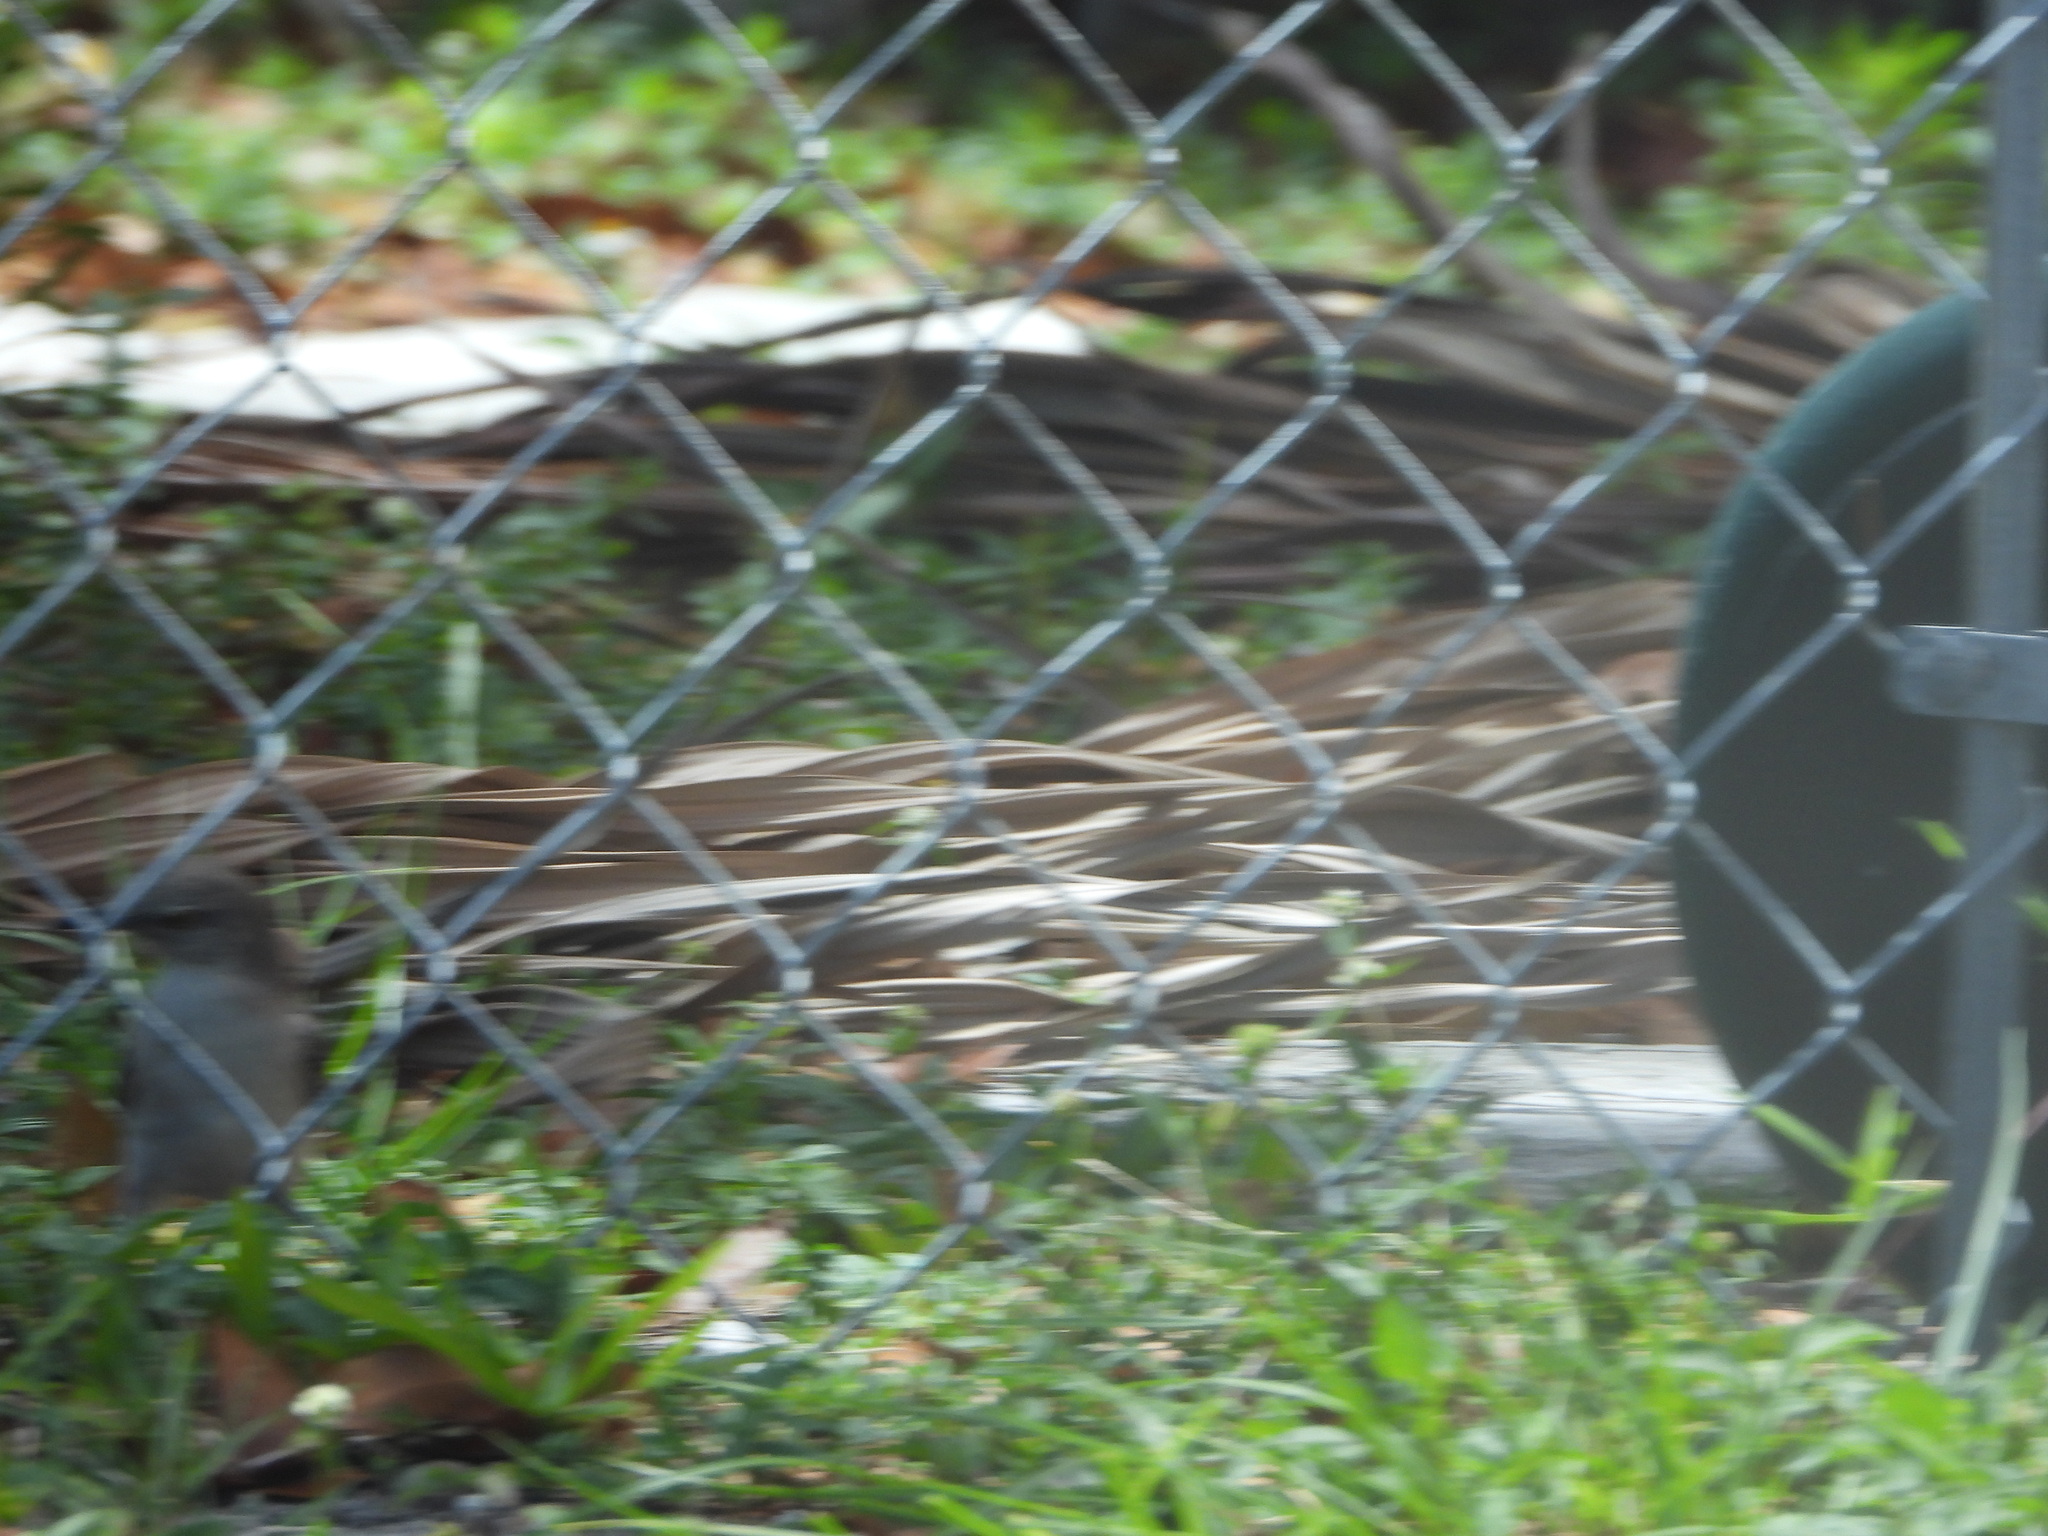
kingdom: Animalia
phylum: Chordata
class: Aves
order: Passeriformes
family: Mimidae
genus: Mimus
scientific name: Mimus polyglottos
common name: Northern mockingbird
